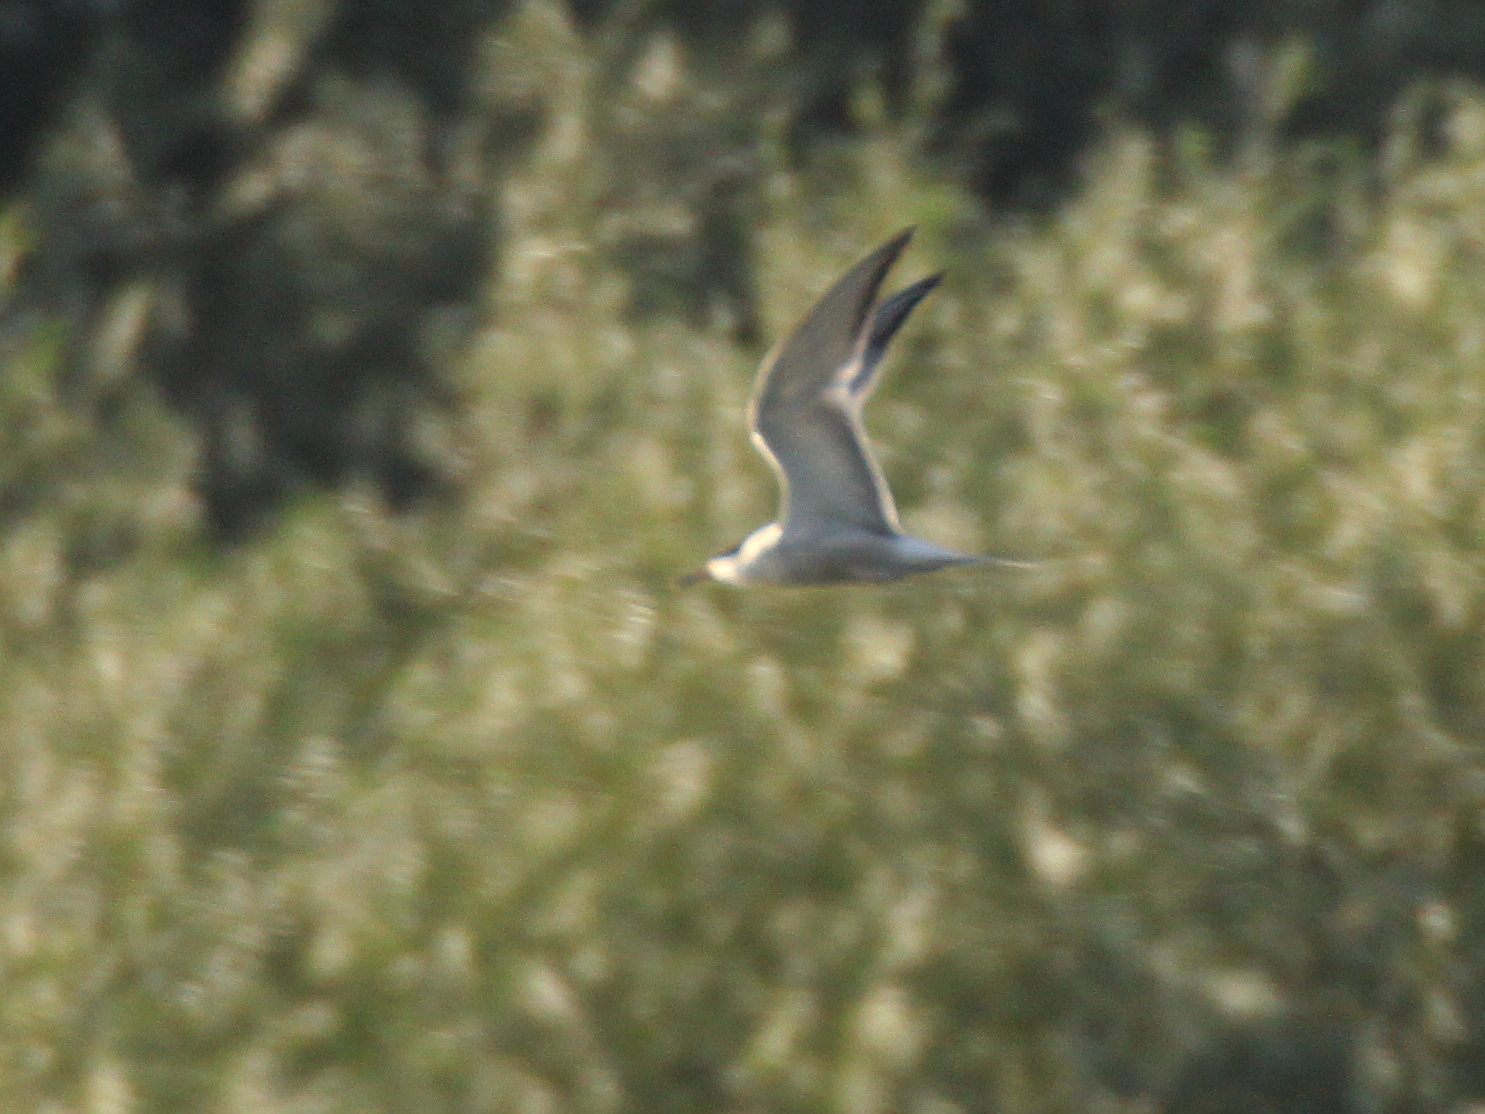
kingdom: Animalia
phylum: Chordata
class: Aves
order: Charadriiformes
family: Laridae
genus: Sterna
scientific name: Sterna hirundo
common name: Common tern
